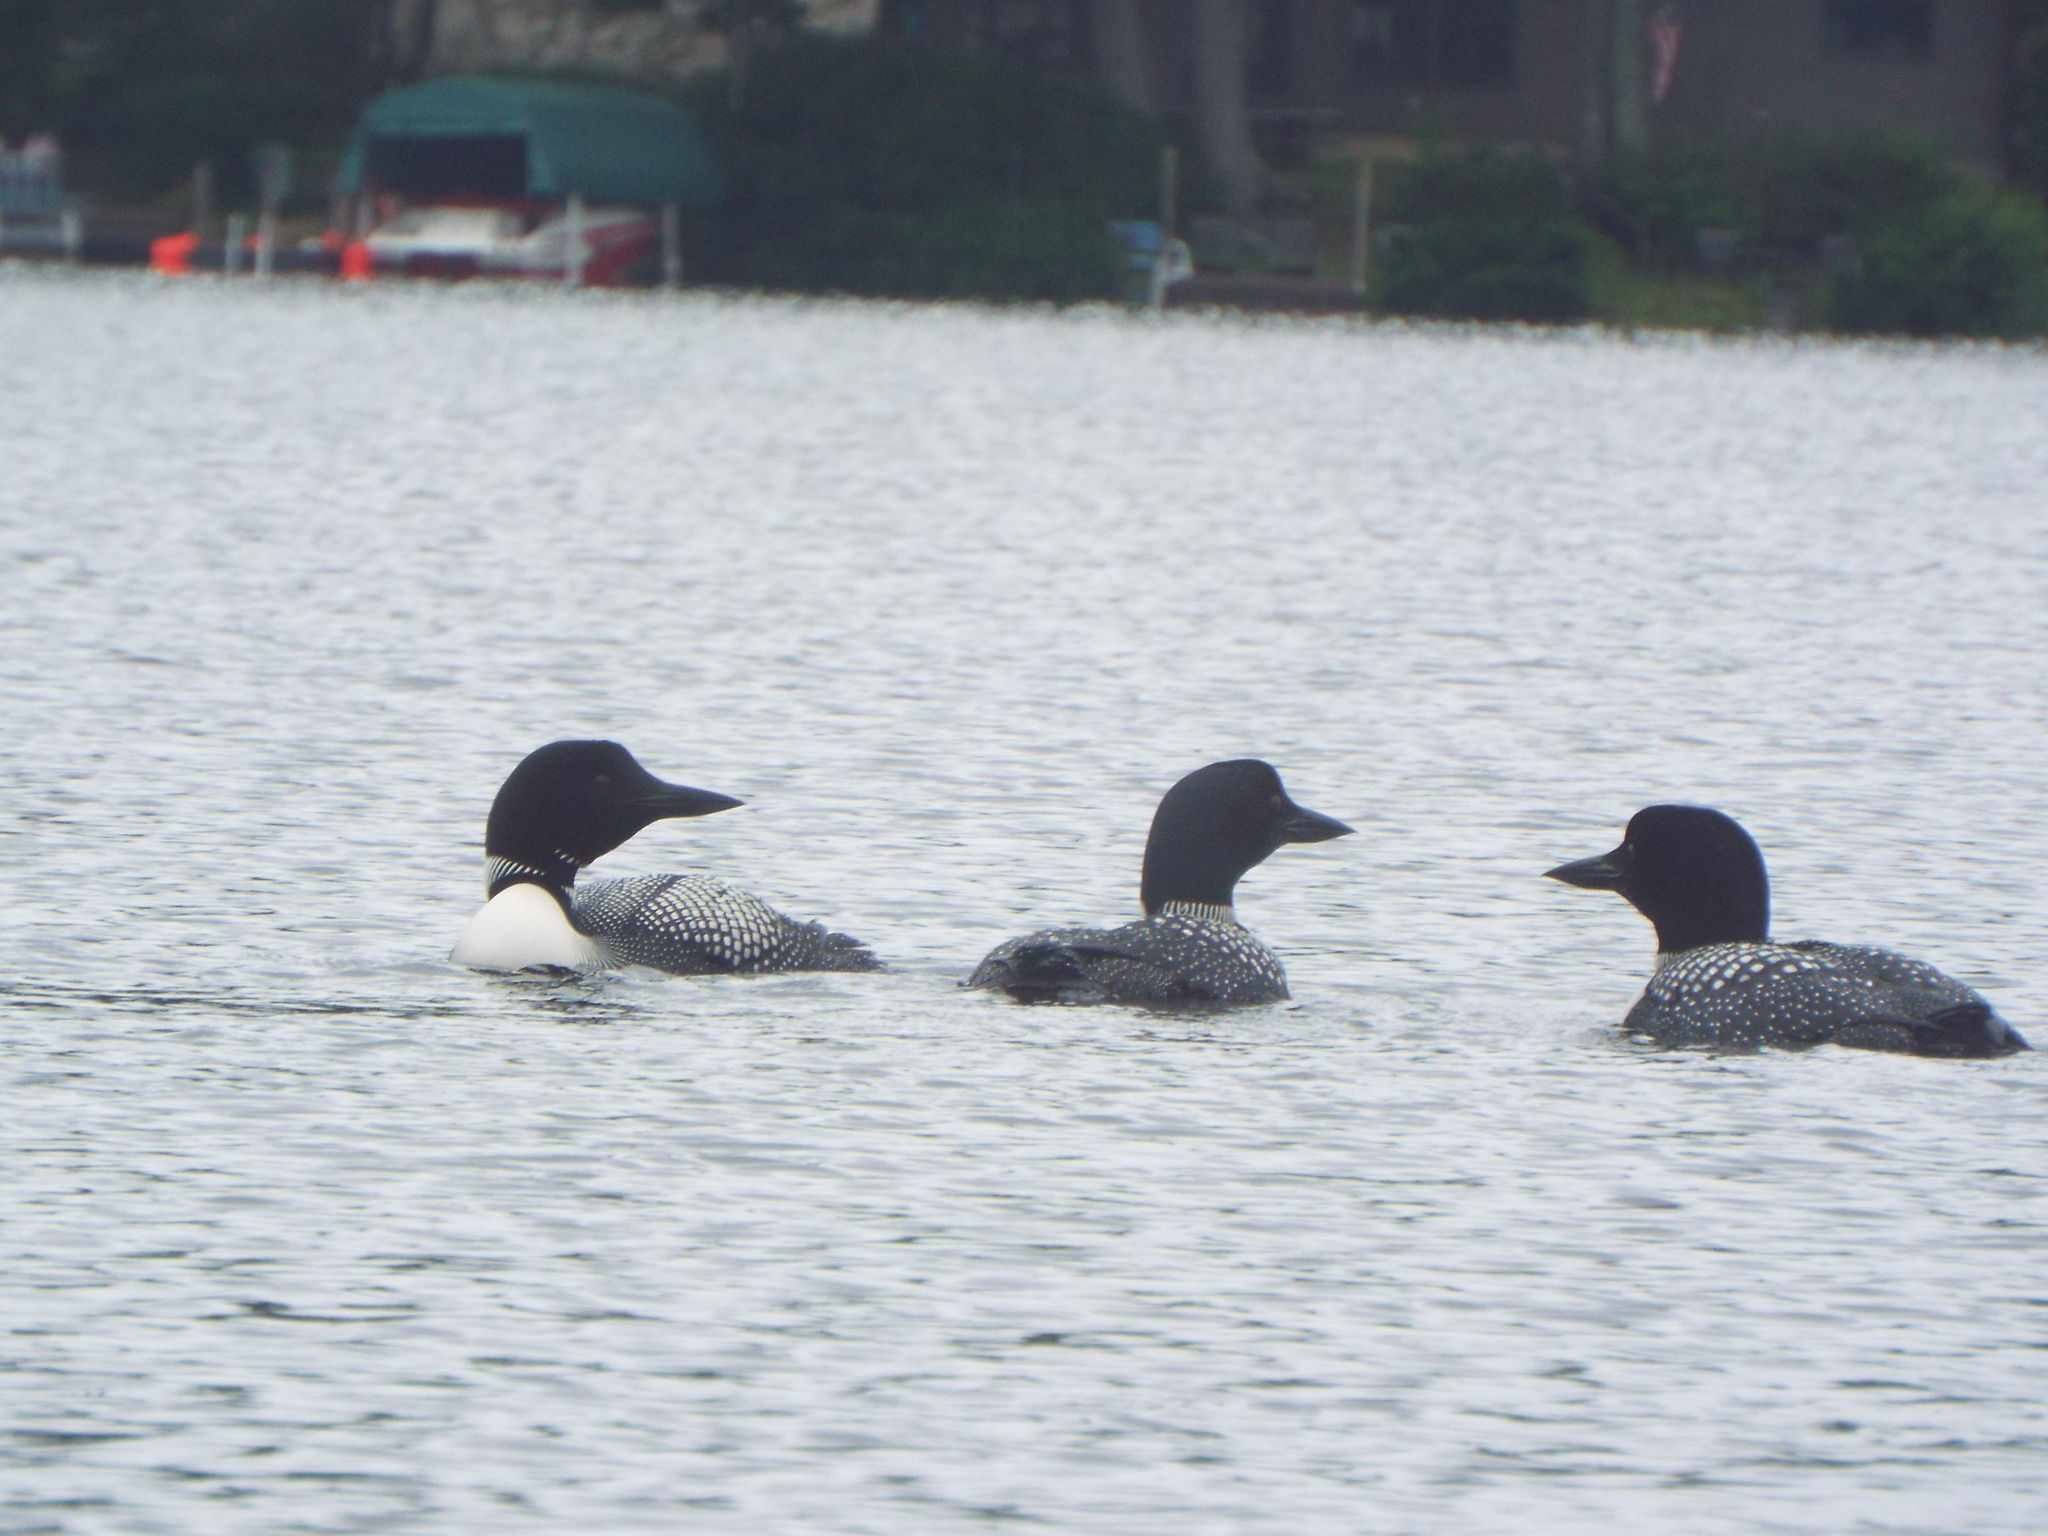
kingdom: Animalia
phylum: Chordata
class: Aves
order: Gaviiformes
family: Gaviidae
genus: Gavia
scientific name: Gavia immer
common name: Common loon
